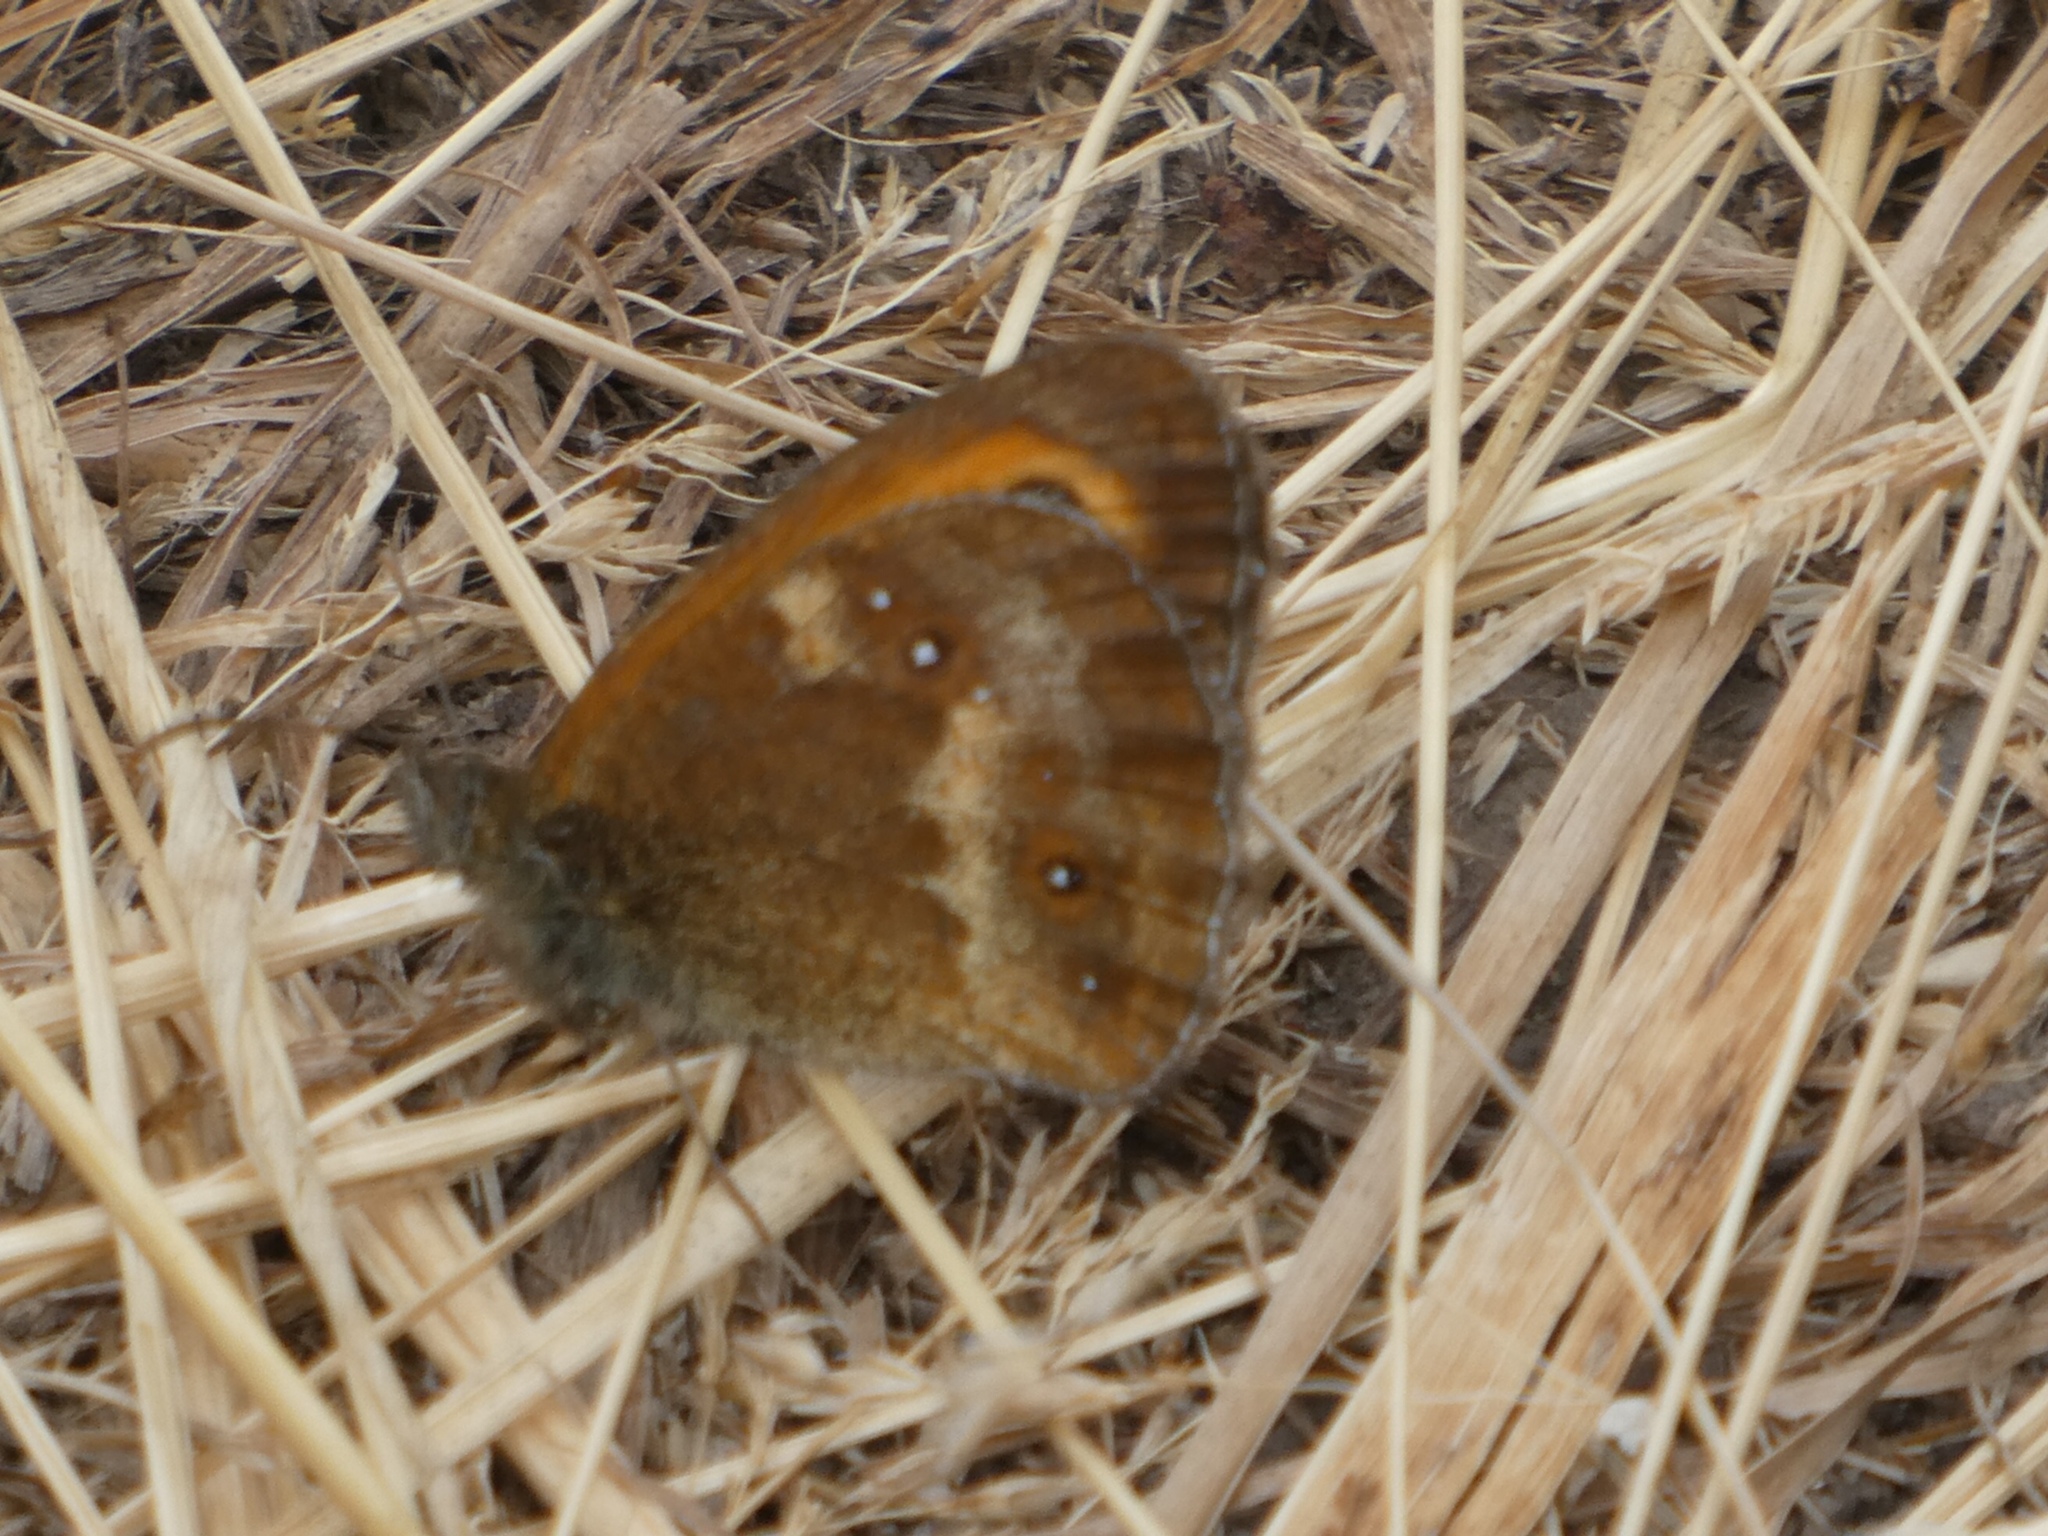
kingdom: Animalia
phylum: Arthropoda
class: Insecta
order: Lepidoptera
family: Nymphalidae
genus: Pyronia
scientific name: Pyronia tithonus
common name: Gatekeeper
